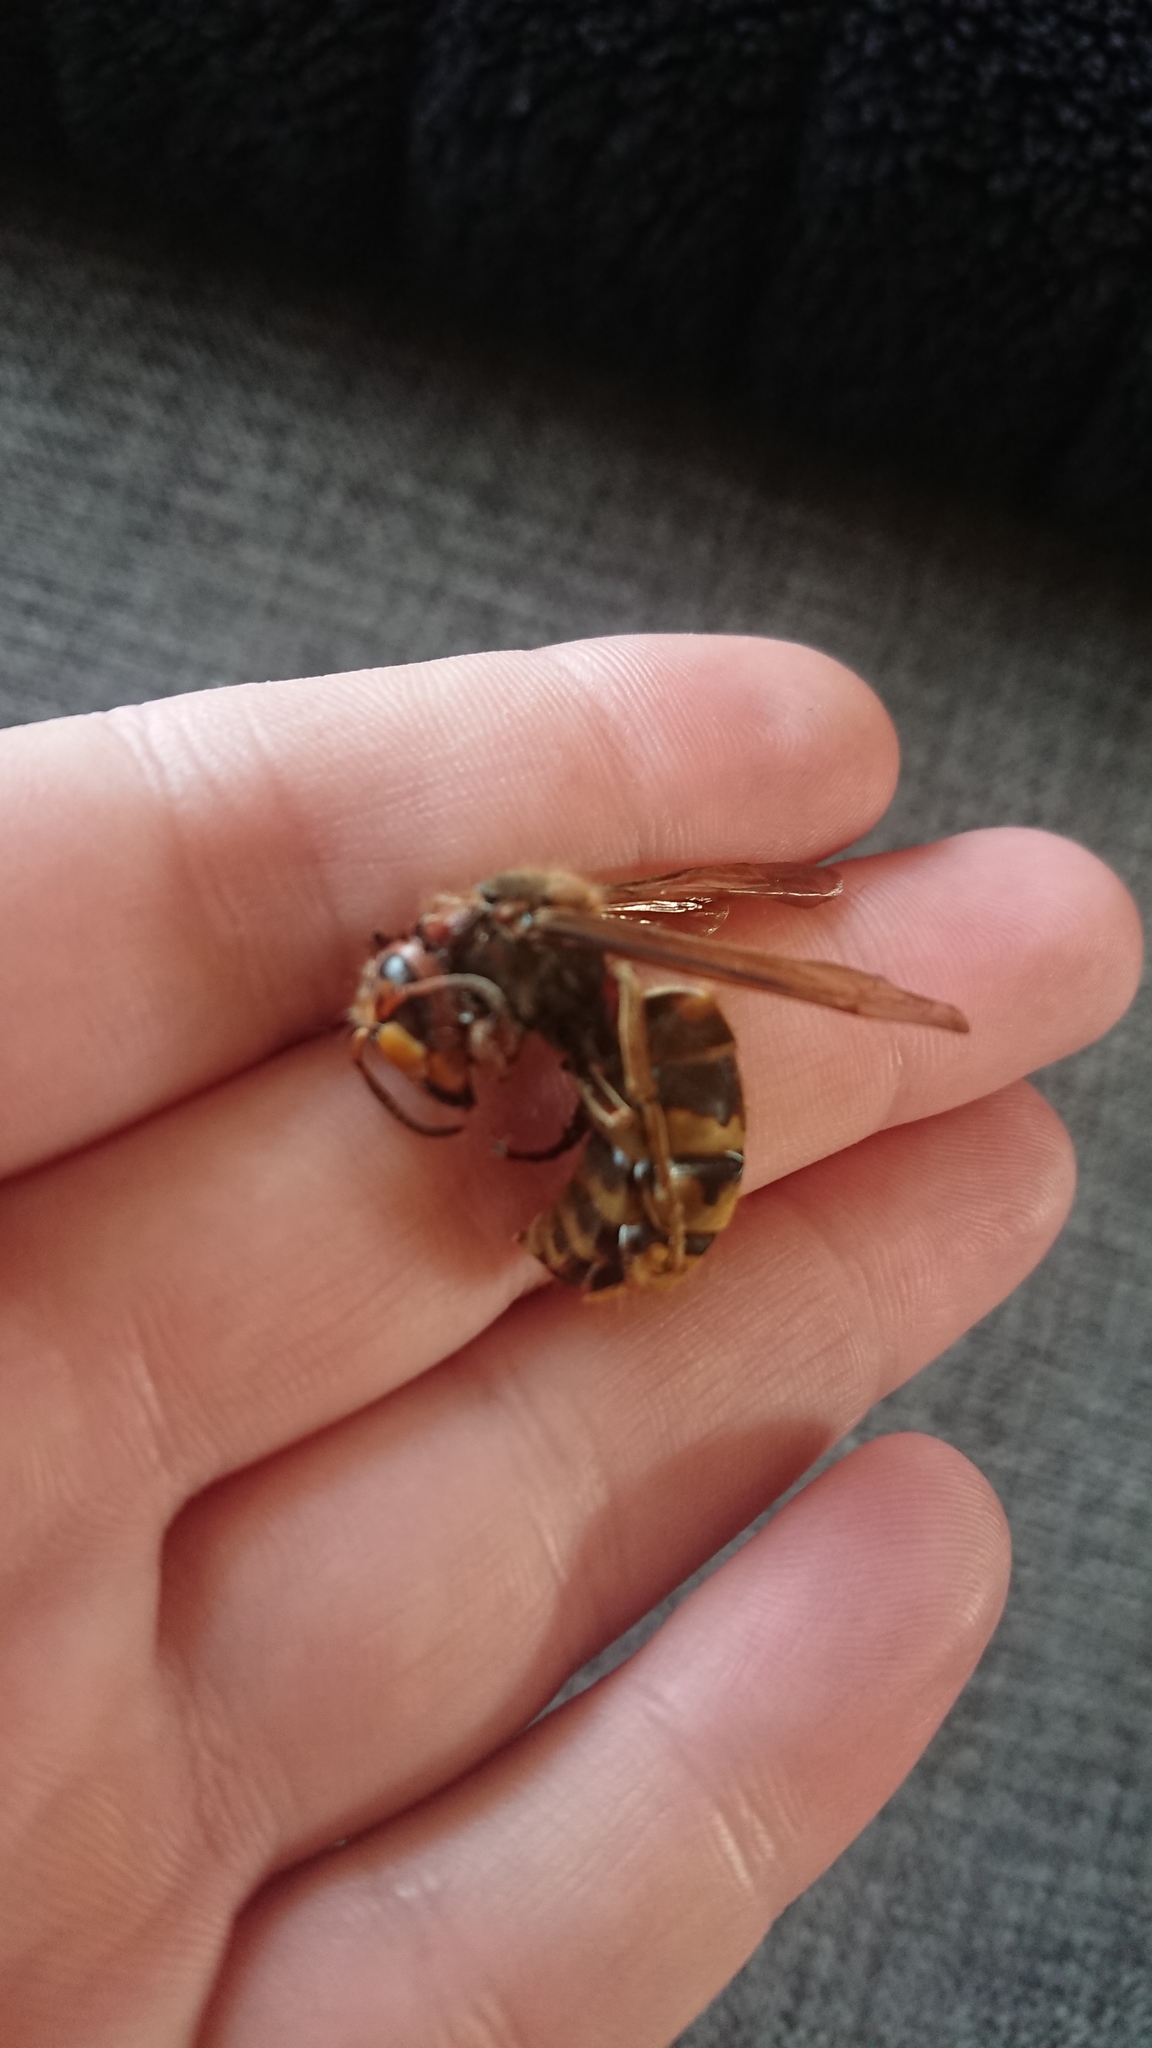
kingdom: Animalia
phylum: Arthropoda
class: Insecta
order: Hymenoptera
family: Vespidae
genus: Vespa
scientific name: Vespa crabro
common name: Hornet
